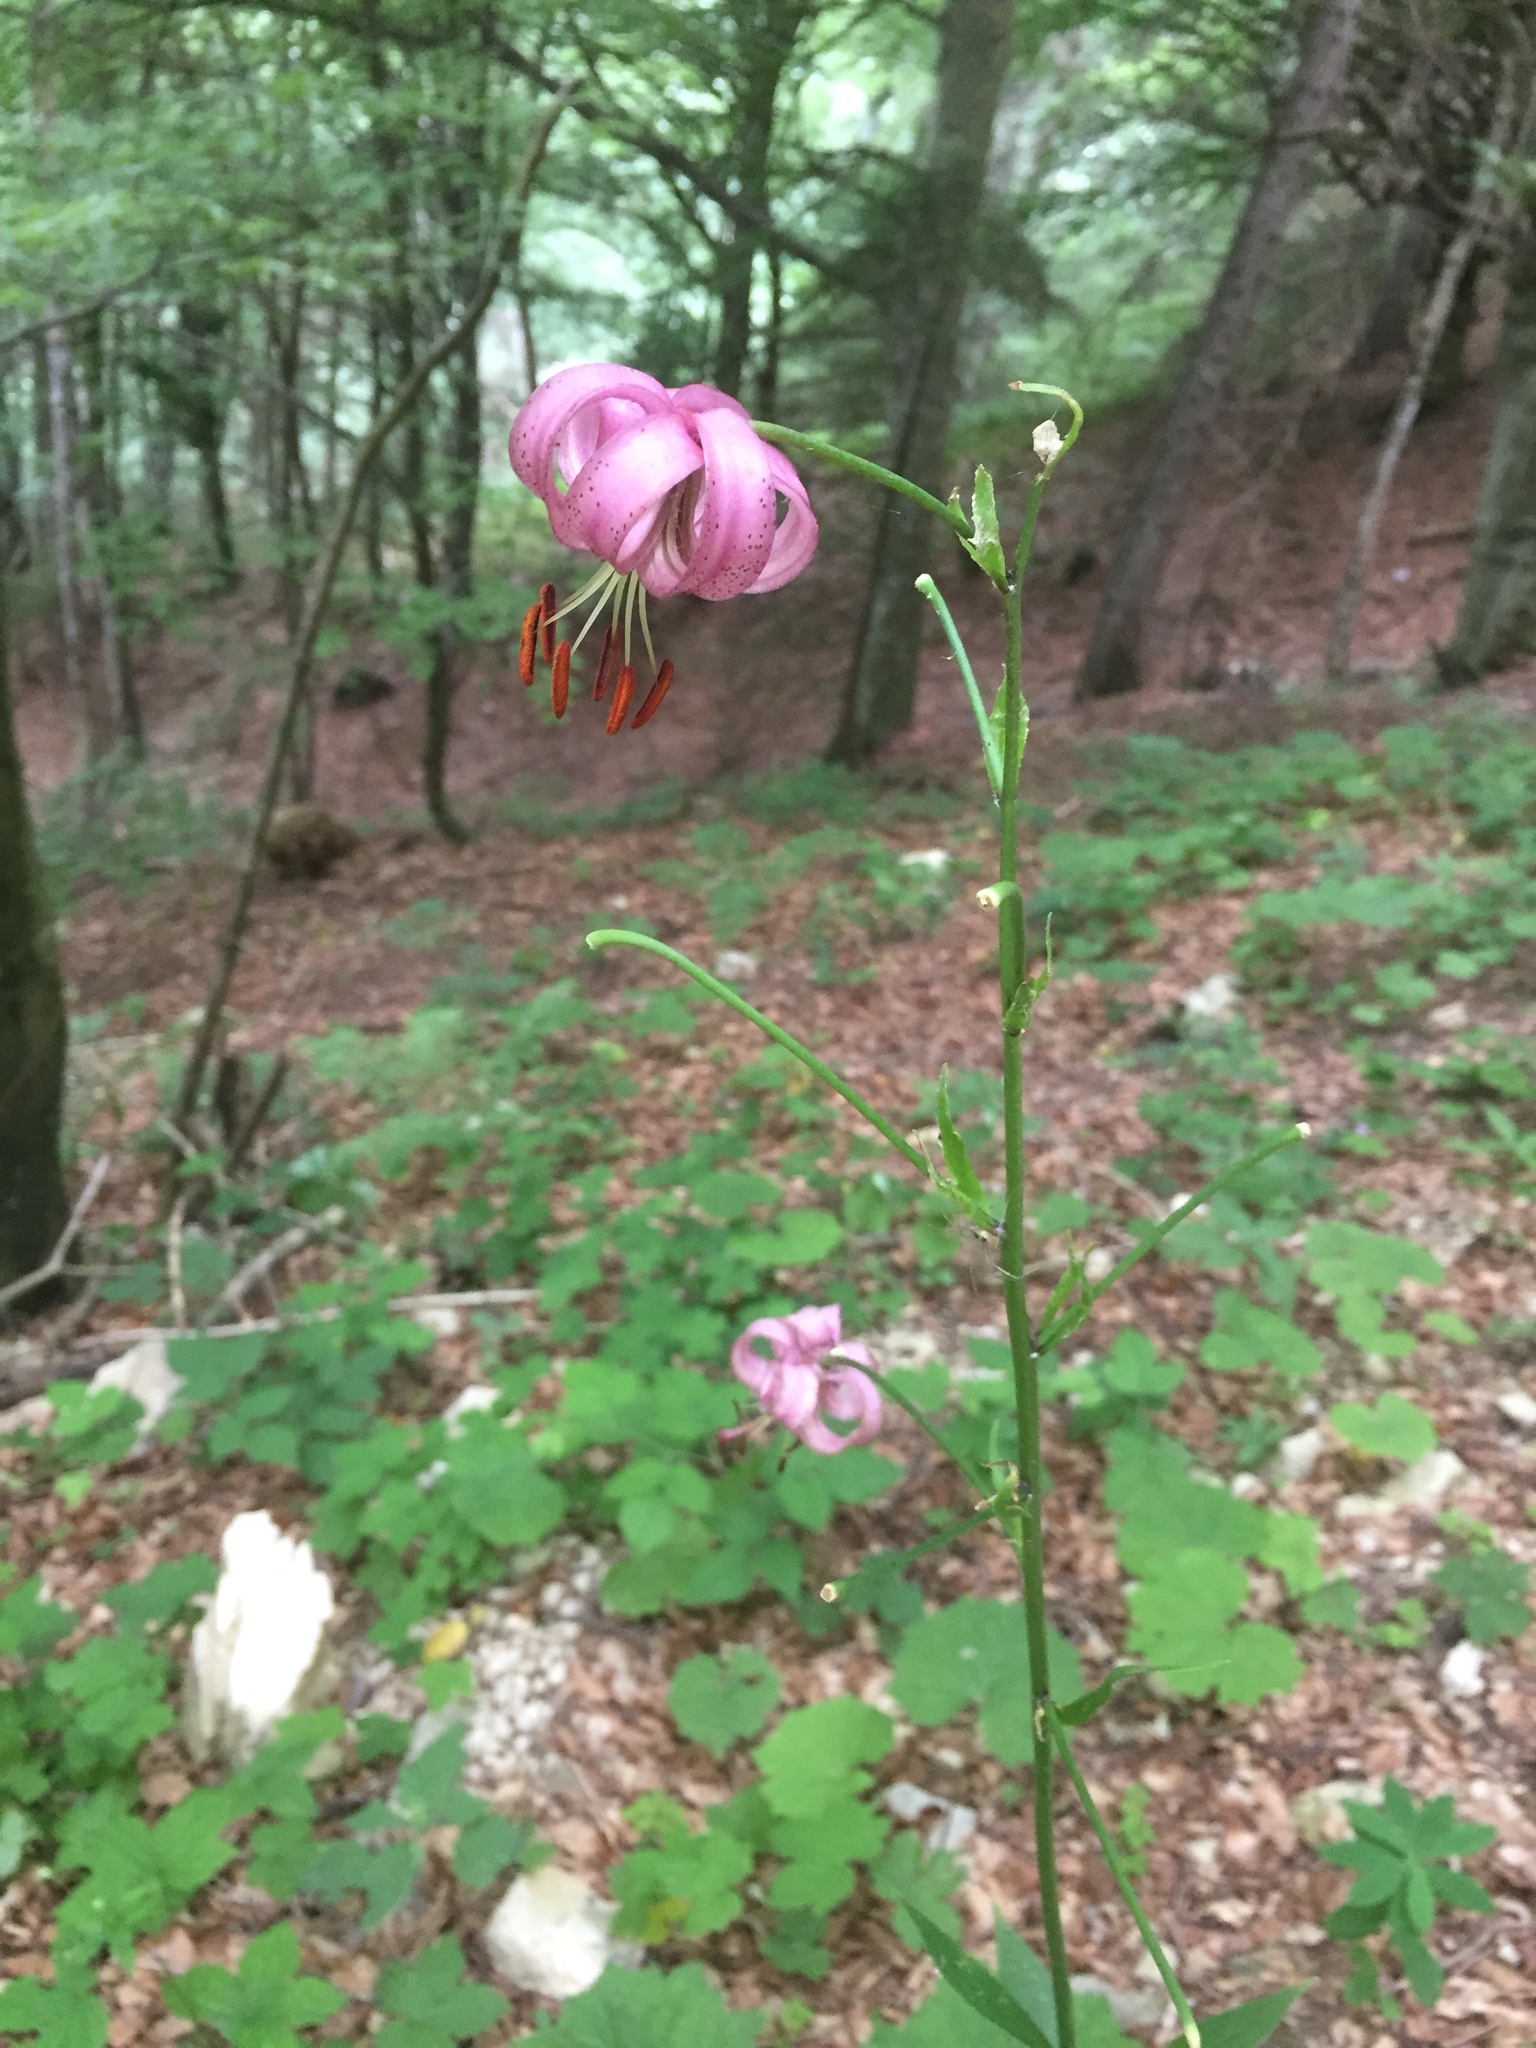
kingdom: Plantae
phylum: Tracheophyta
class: Liliopsida
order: Liliales
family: Liliaceae
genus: Lilium
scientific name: Lilium martagon
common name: Martagon lily
